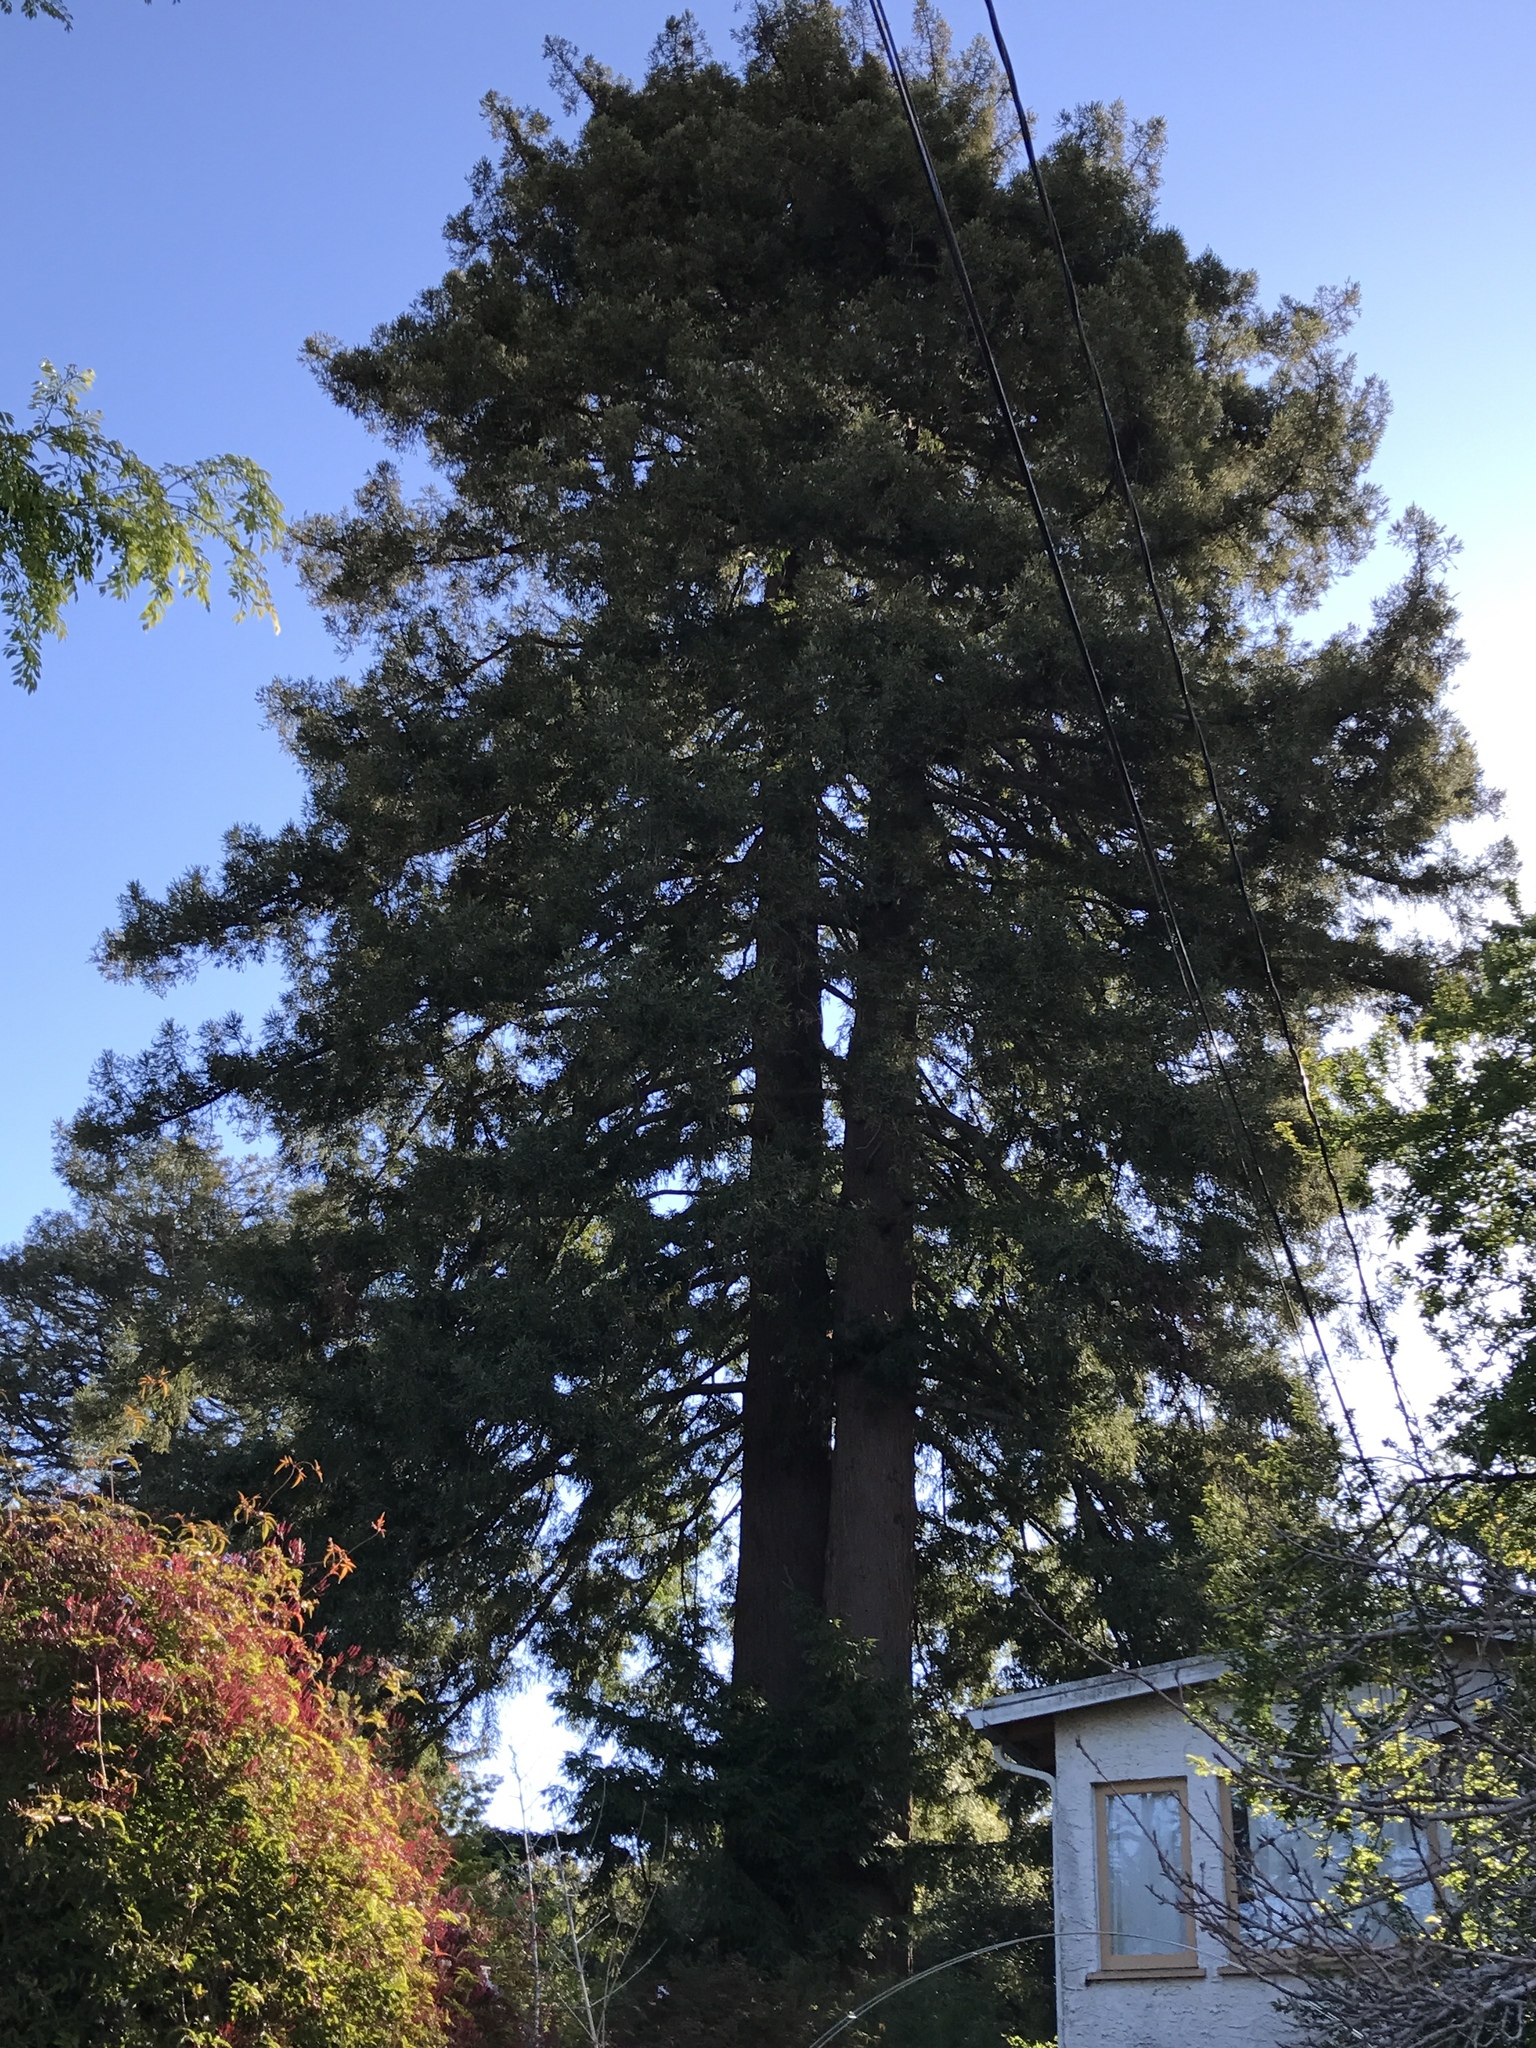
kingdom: Plantae
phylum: Tracheophyta
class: Pinopsida
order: Pinales
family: Cupressaceae
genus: Sequoia
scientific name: Sequoia sempervirens
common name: Coast redwood
